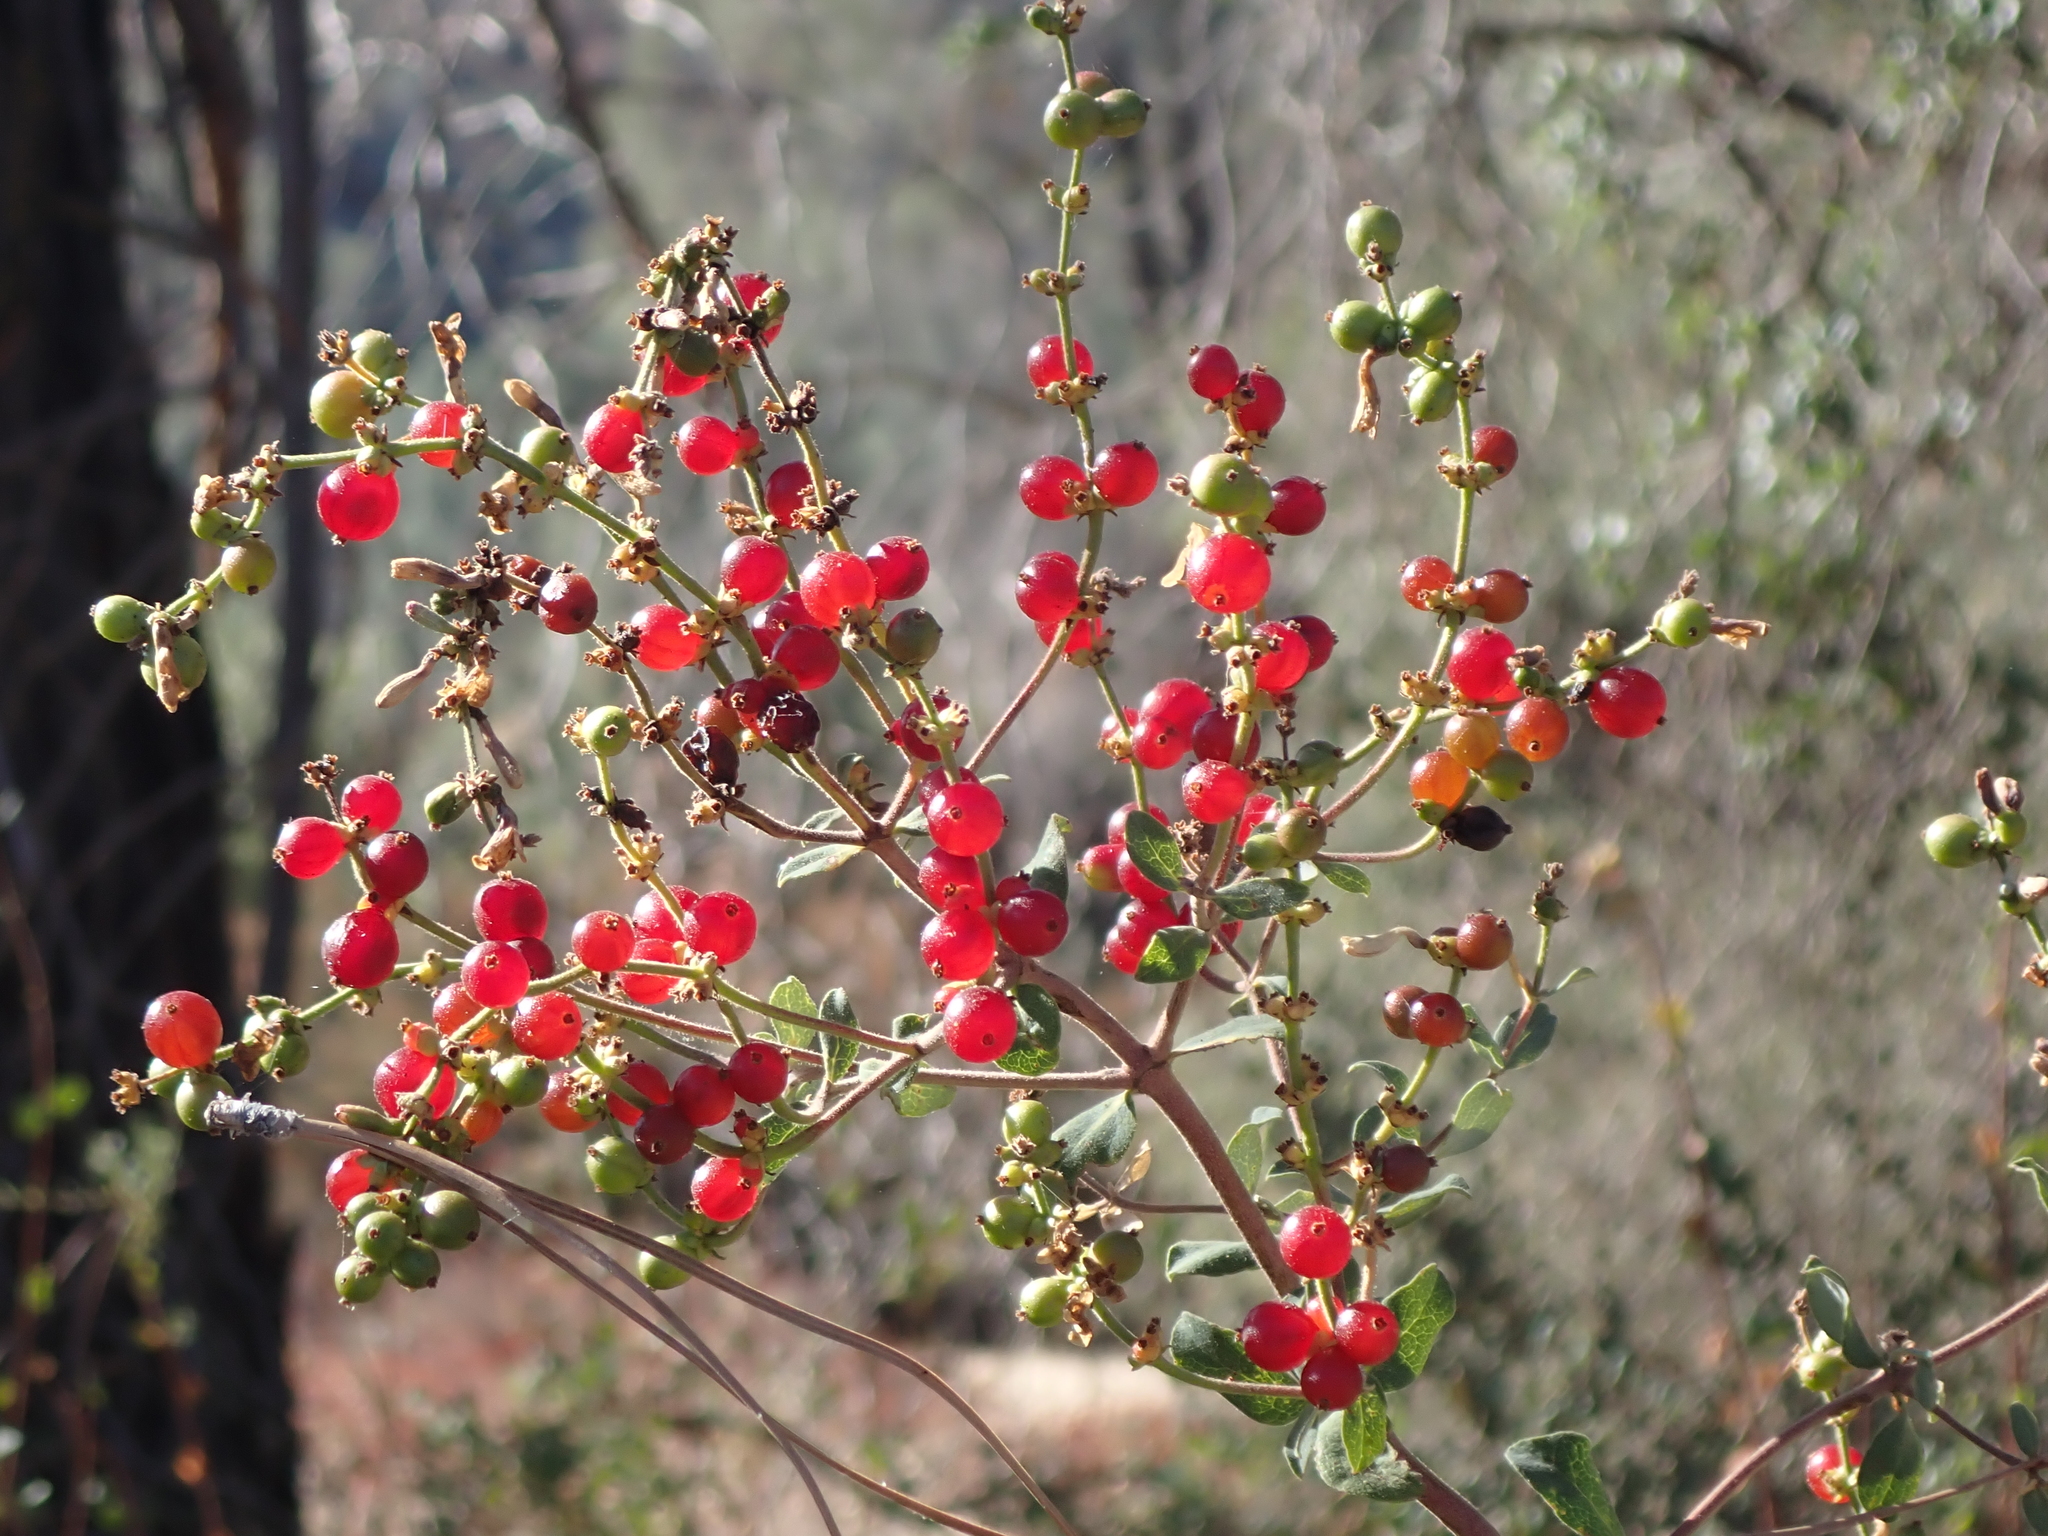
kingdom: Plantae
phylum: Tracheophyta
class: Magnoliopsida
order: Dipsacales
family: Caprifoliaceae
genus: Lonicera
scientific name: Lonicera subspicata
